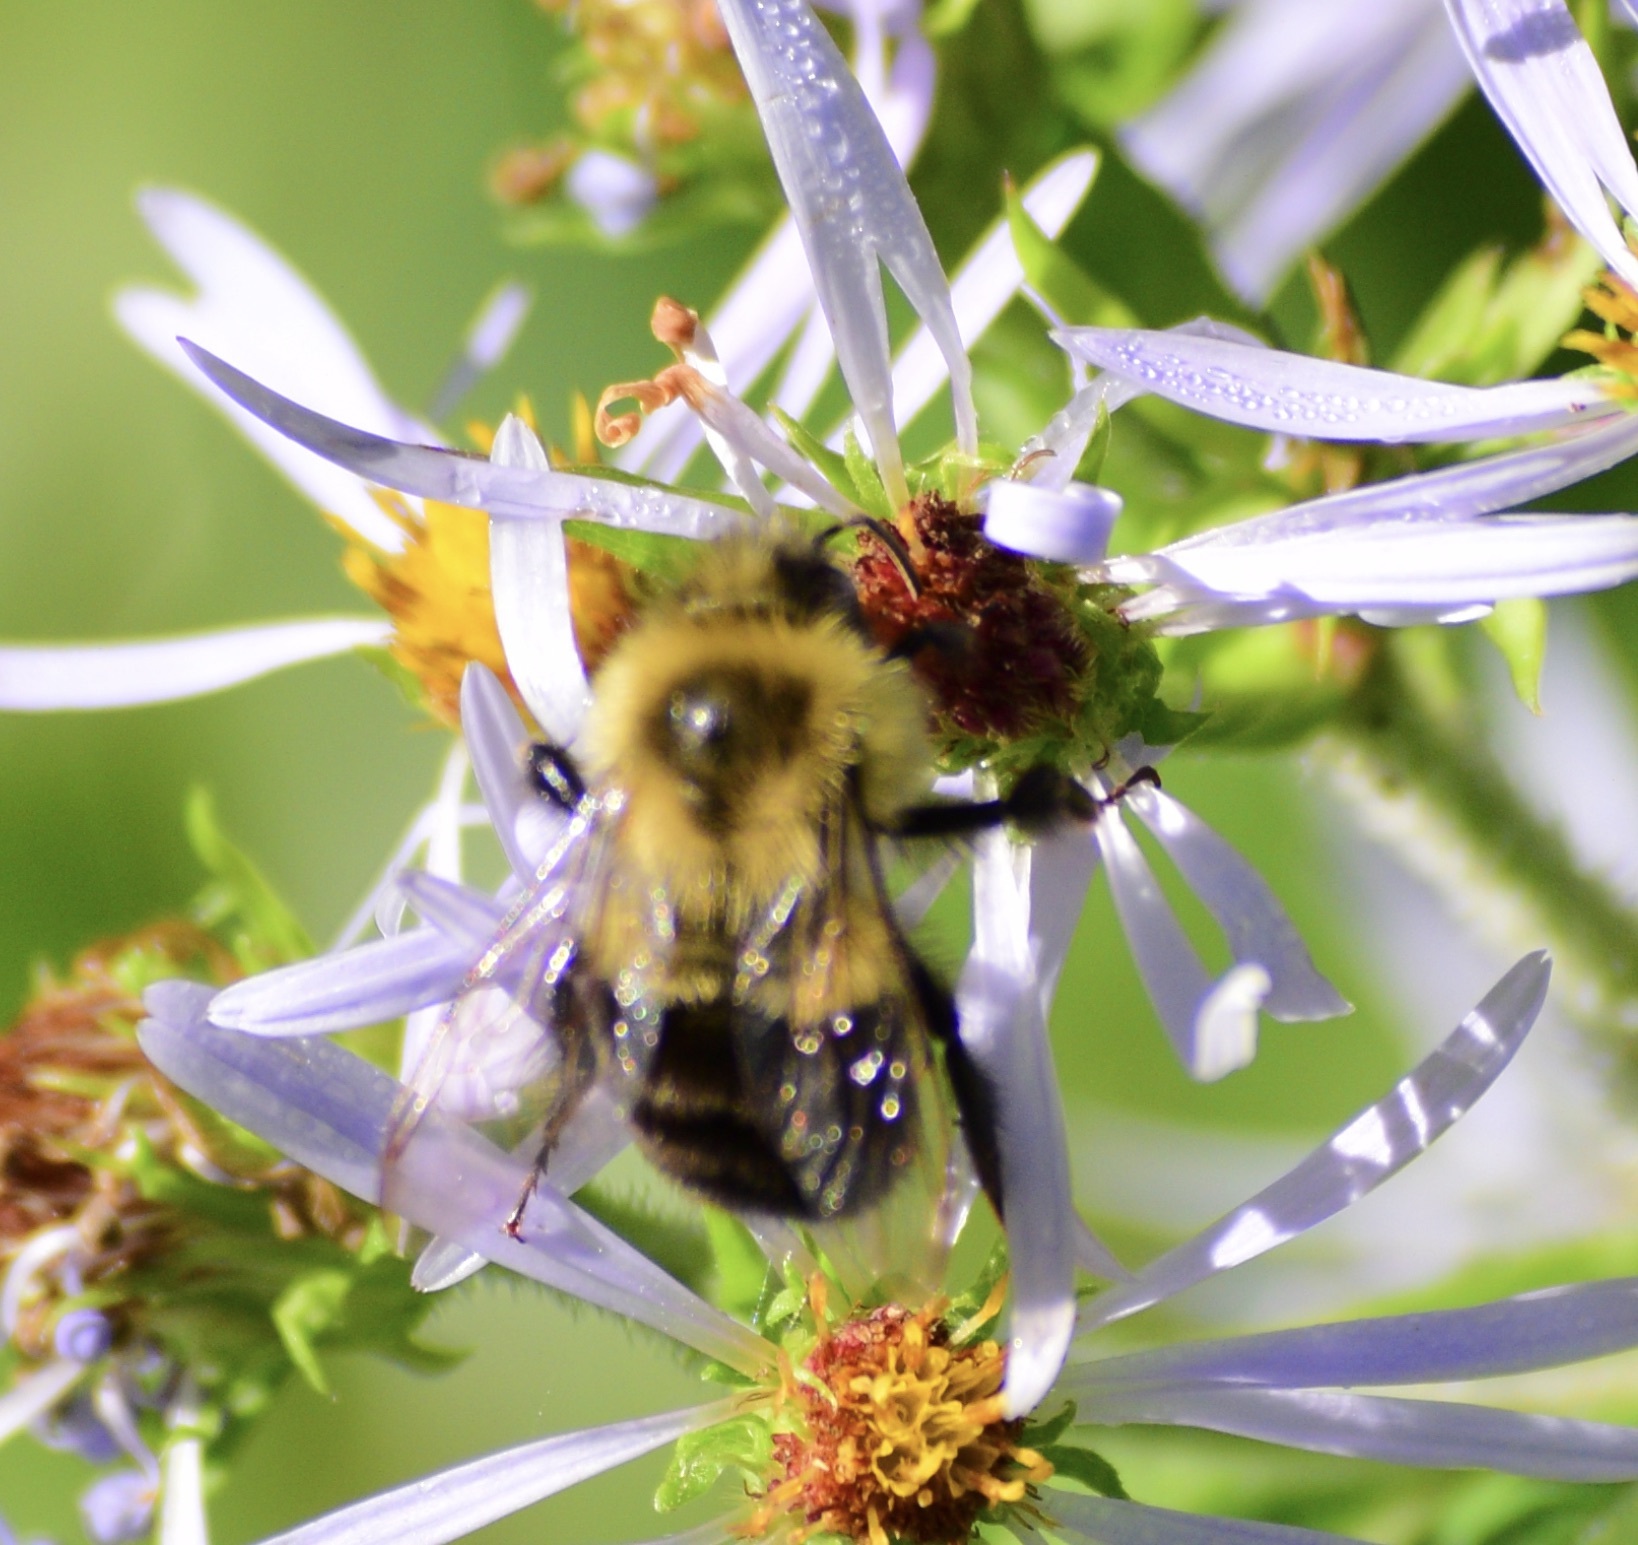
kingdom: Animalia
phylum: Arthropoda
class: Insecta
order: Hymenoptera
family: Apidae
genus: Bombus
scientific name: Bombus impatiens
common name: Common eastern bumble bee
